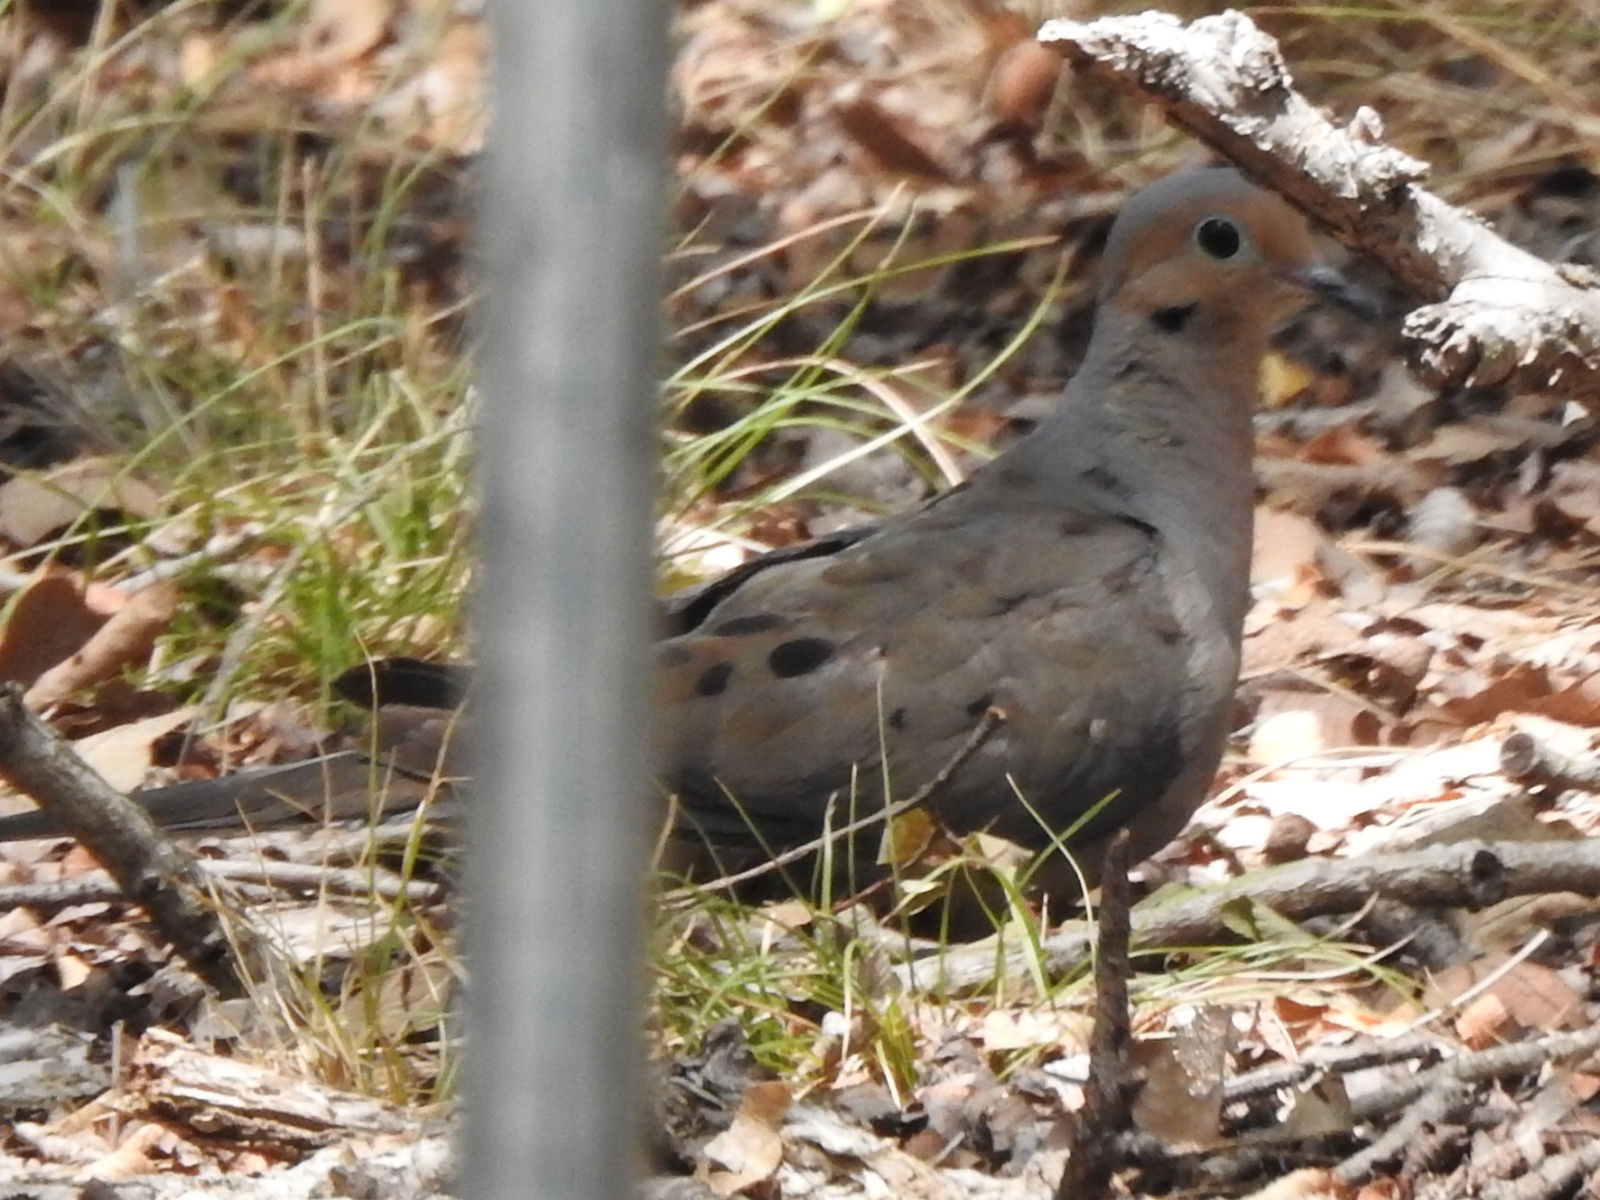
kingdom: Animalia
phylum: Chordata
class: Aves
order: Columbiformes
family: Columbidae
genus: Zenaida
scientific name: Zenaida macroura
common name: Mourning dove
